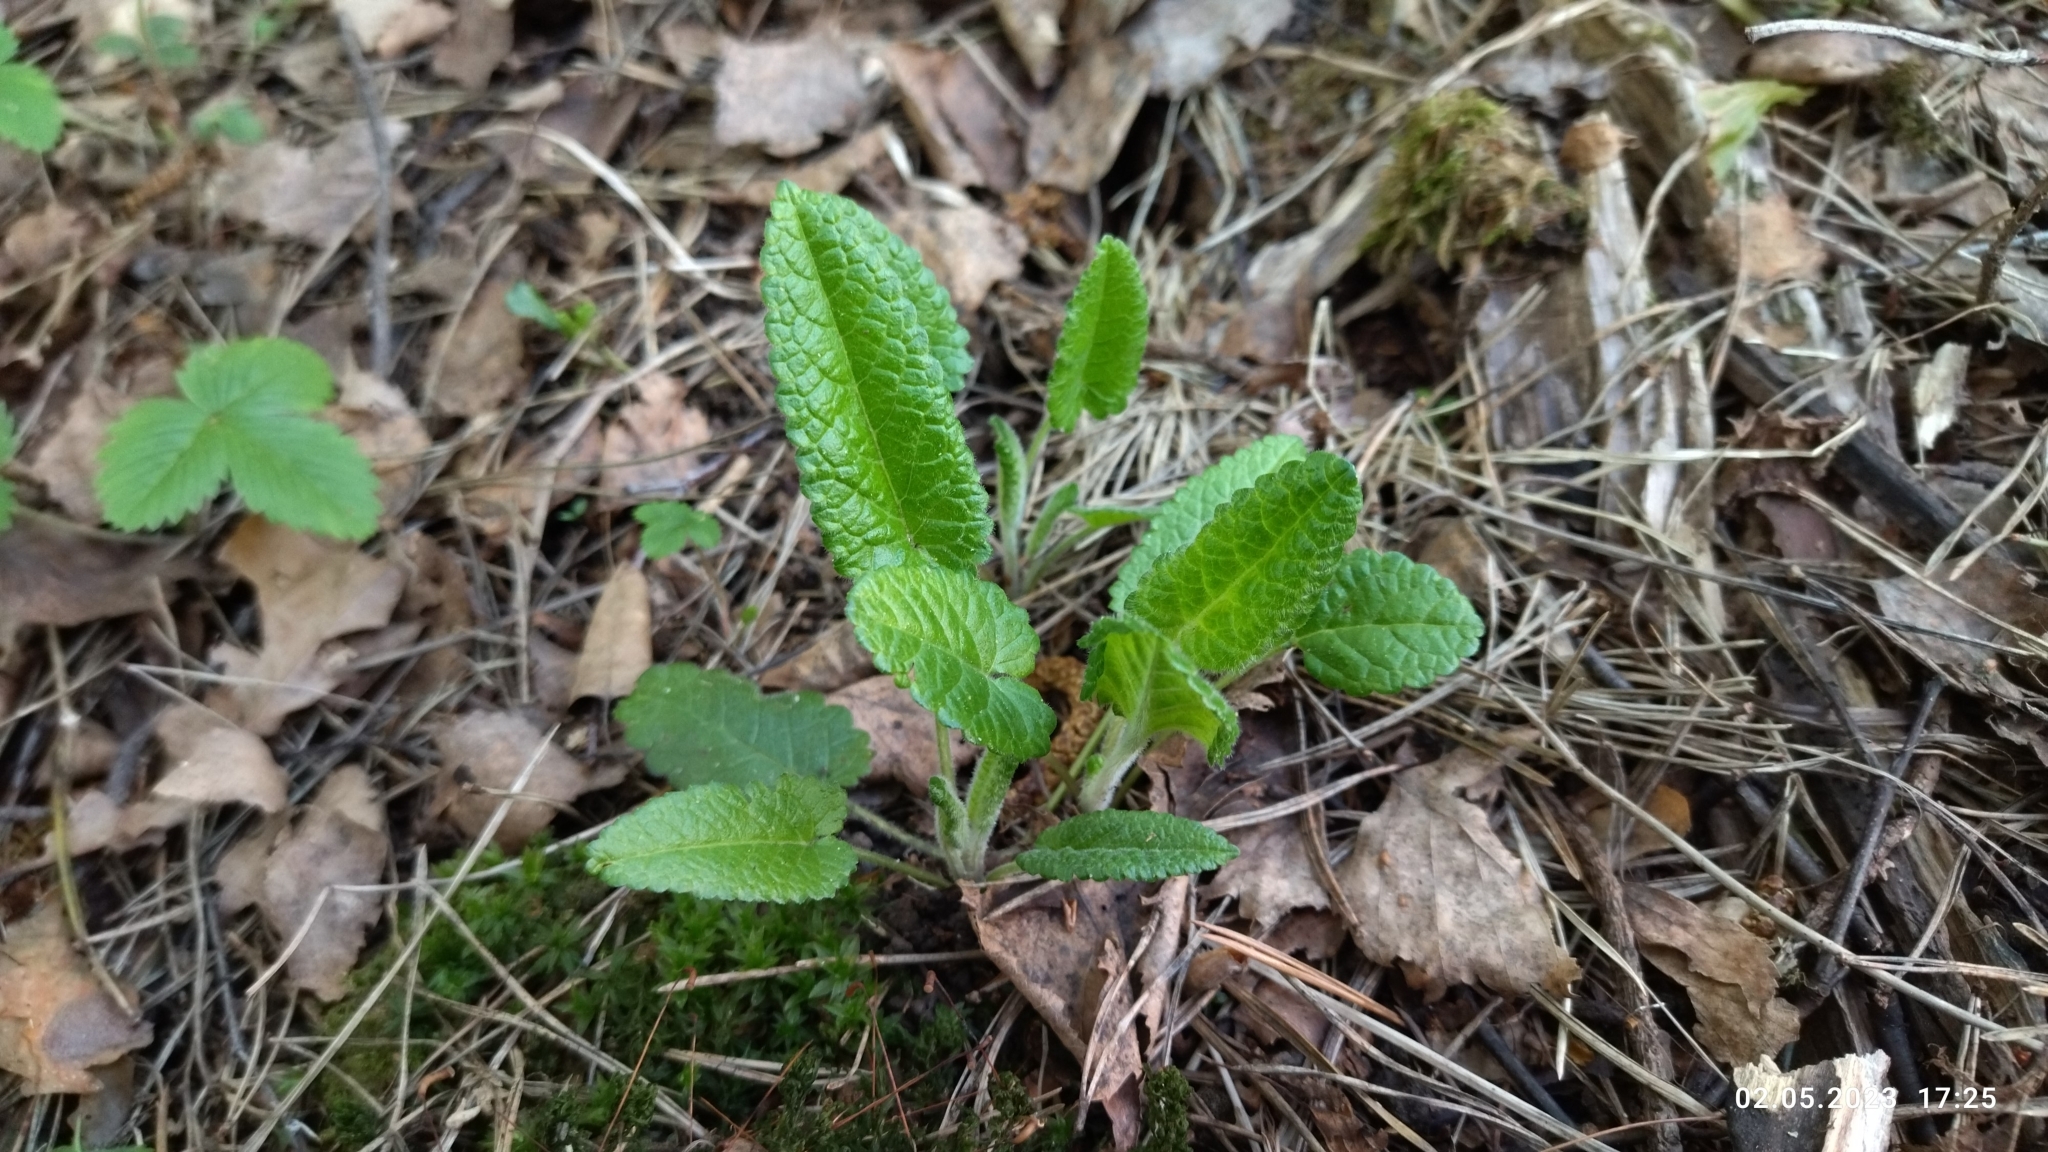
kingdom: Plantae
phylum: Tracheophyta
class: Magnoliopsida
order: Lamiales
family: Lamiaceae
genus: Betonica
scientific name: Betonica officinalis
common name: Bishop's-wort
